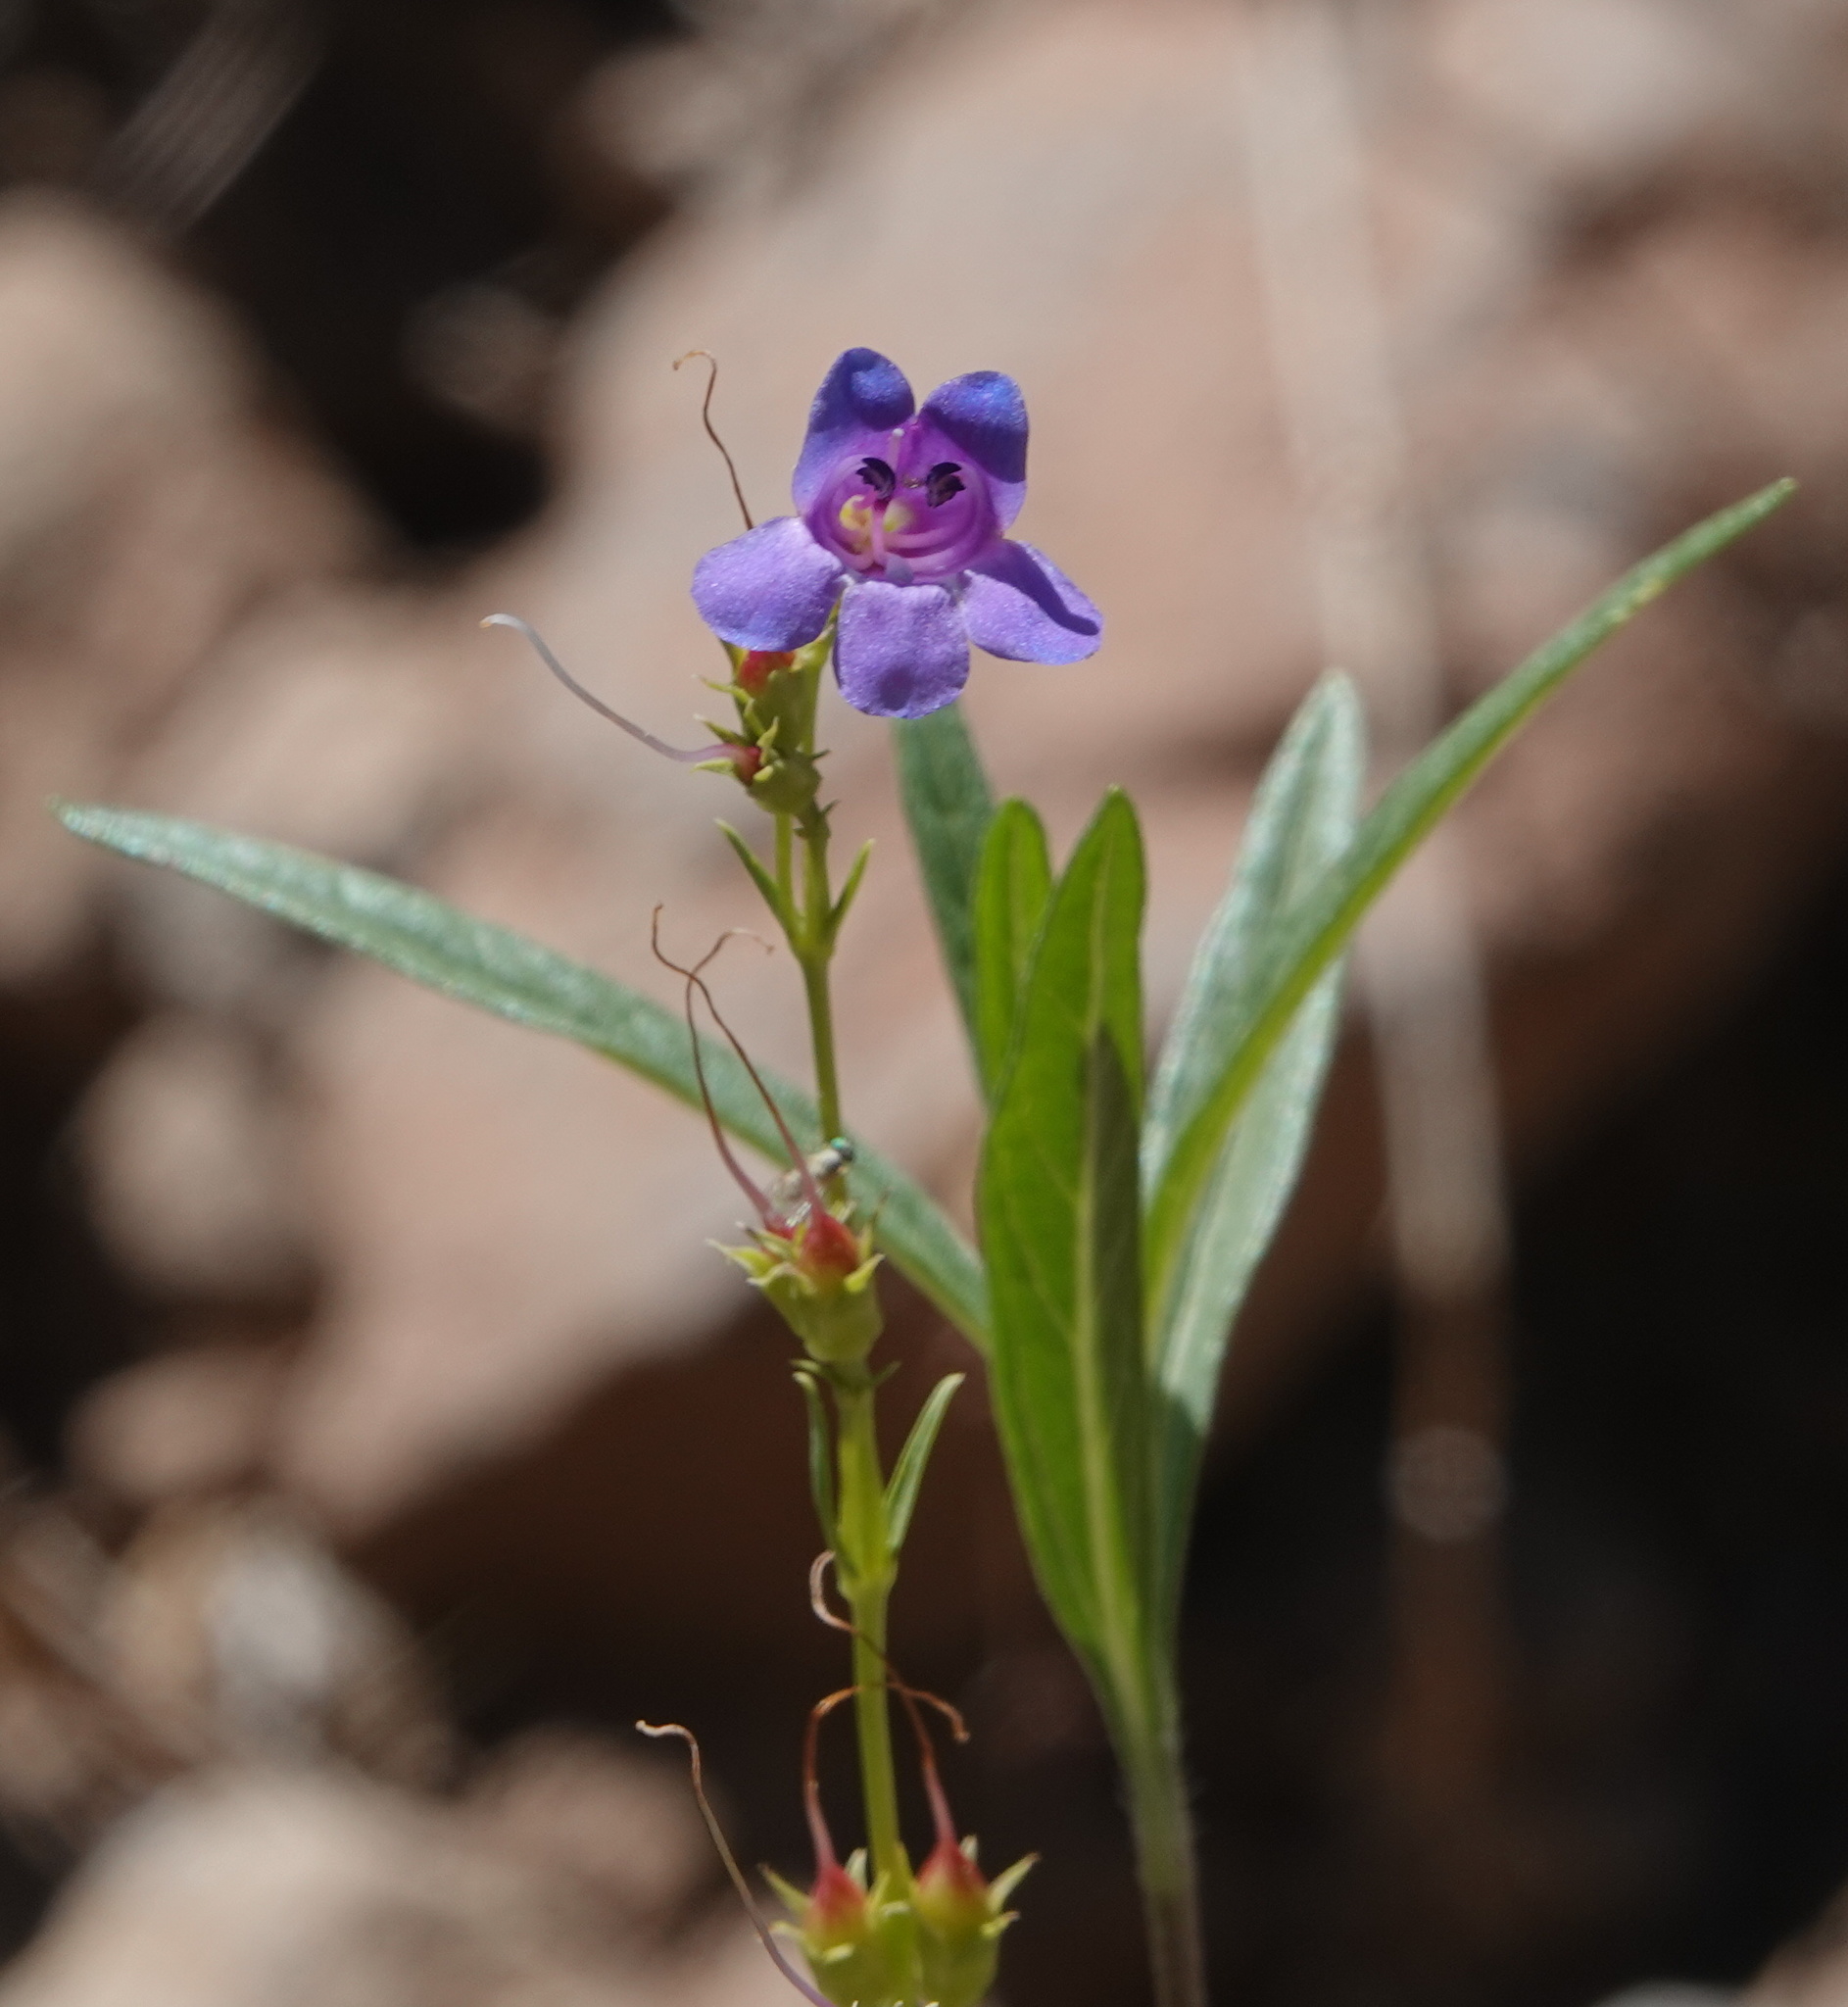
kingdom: Plantae
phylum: Tracheophyta
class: Magnoliopsida
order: Lamiales
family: Plantaginaceae
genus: Penstemon
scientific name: Penstemon leonardii
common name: Leonard's penstemon
